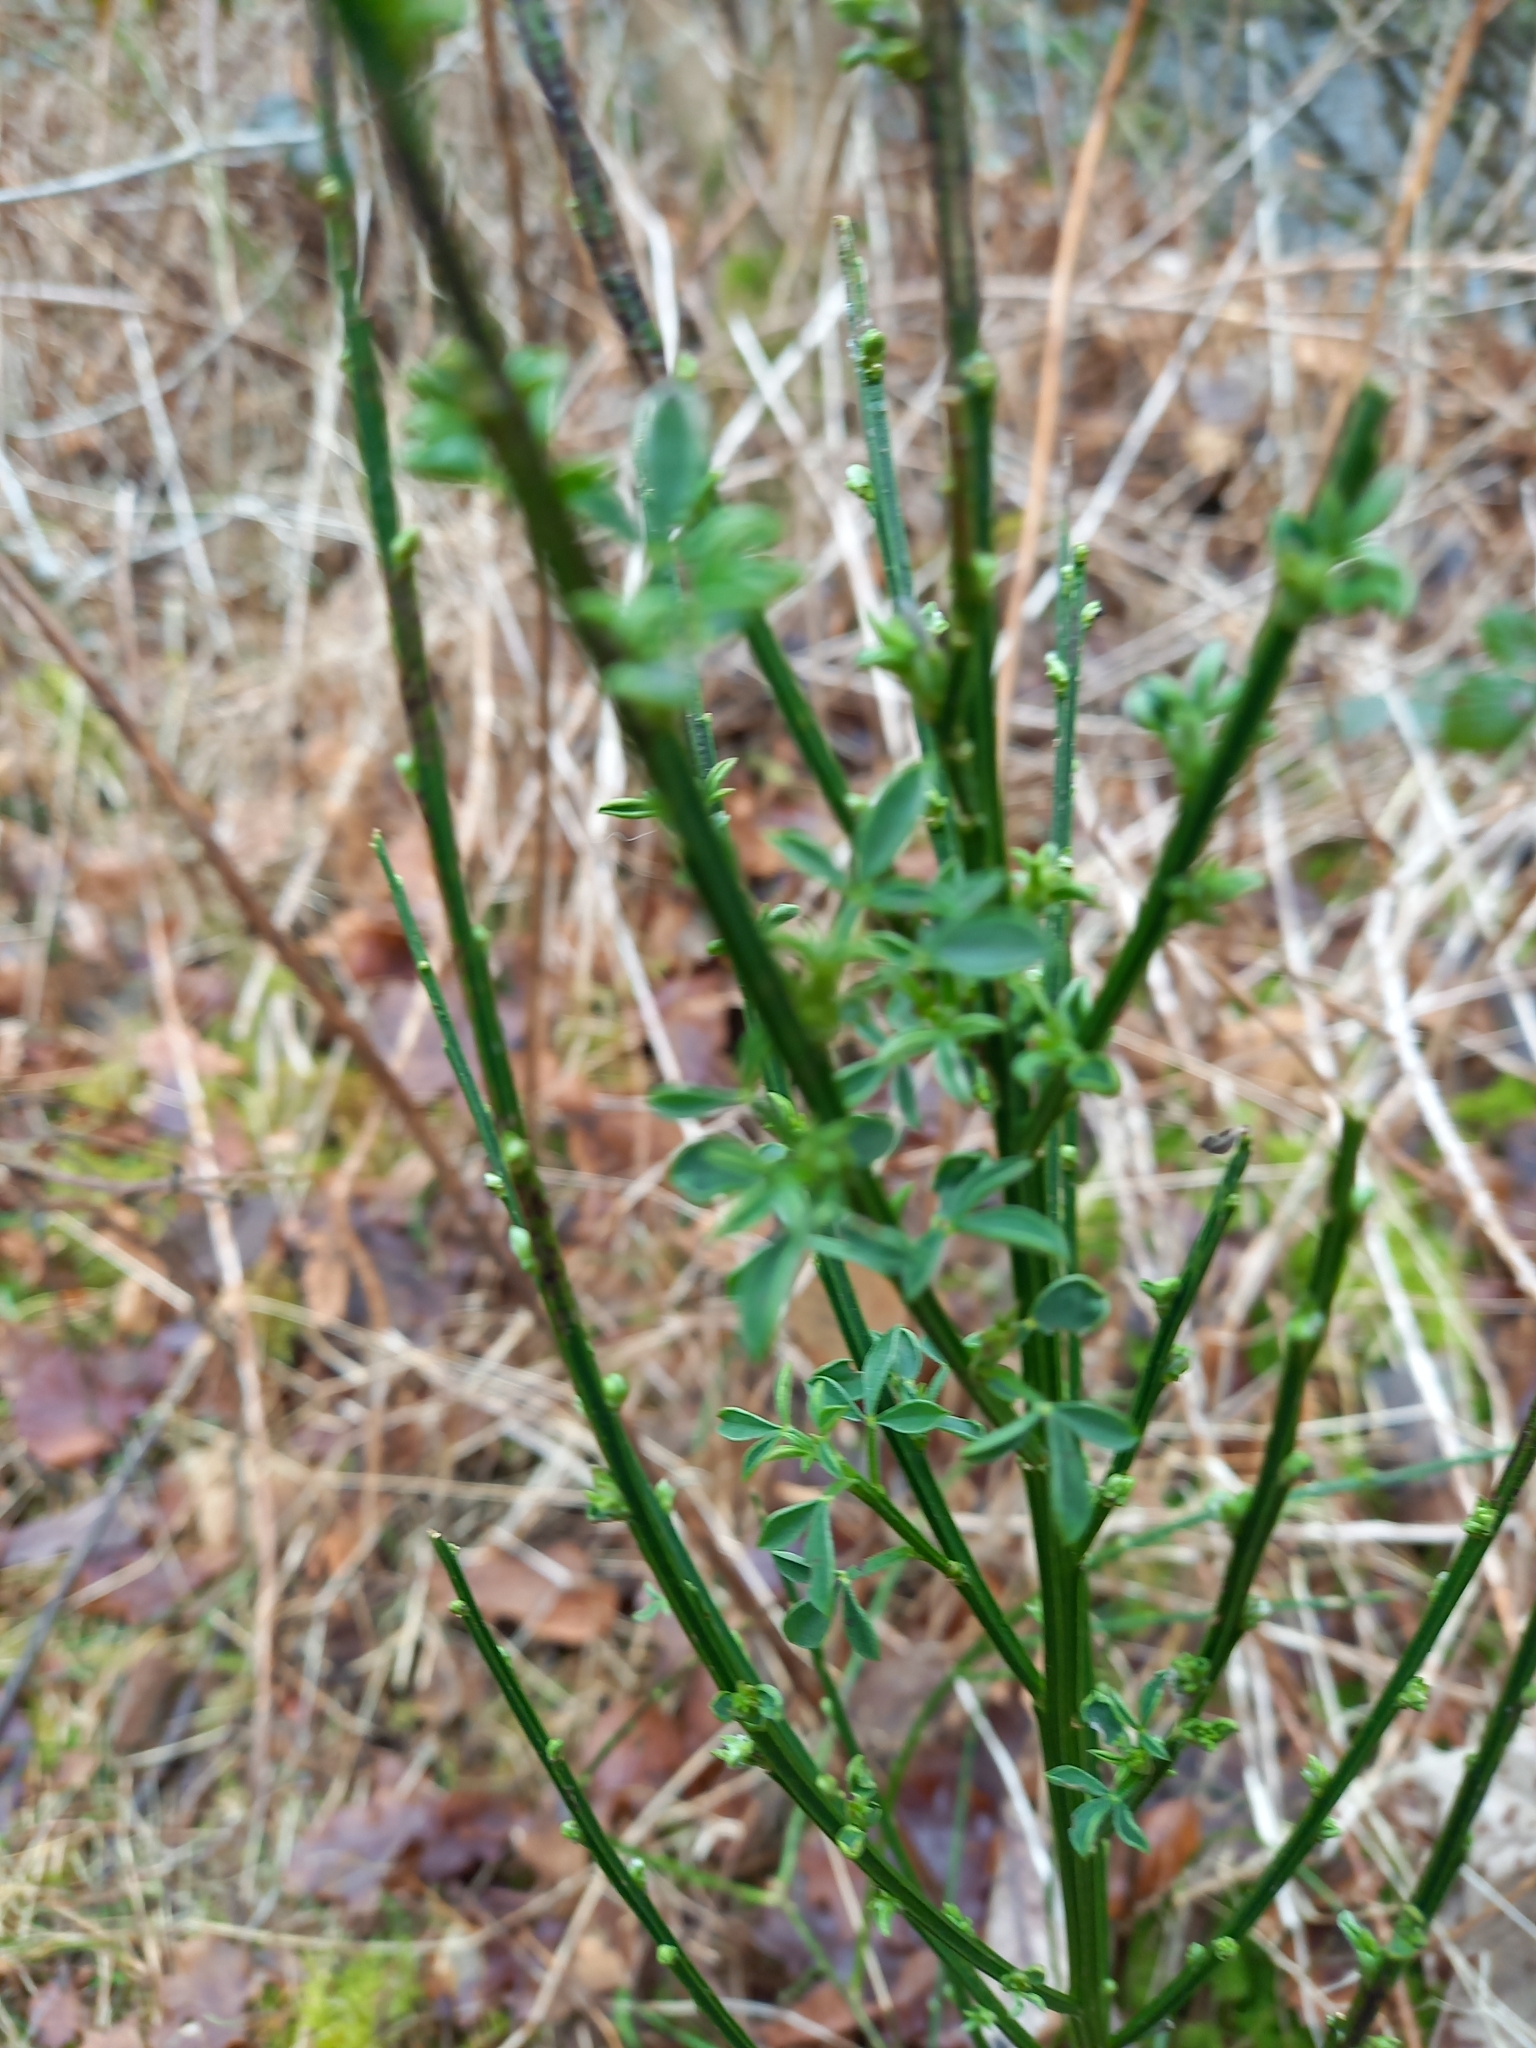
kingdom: Plantae
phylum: Tracheophyta
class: Magnoliopsida
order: Fabales
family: Fabaceae
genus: Cytisus
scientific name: Cytisus scoparius
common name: Scotch broom
